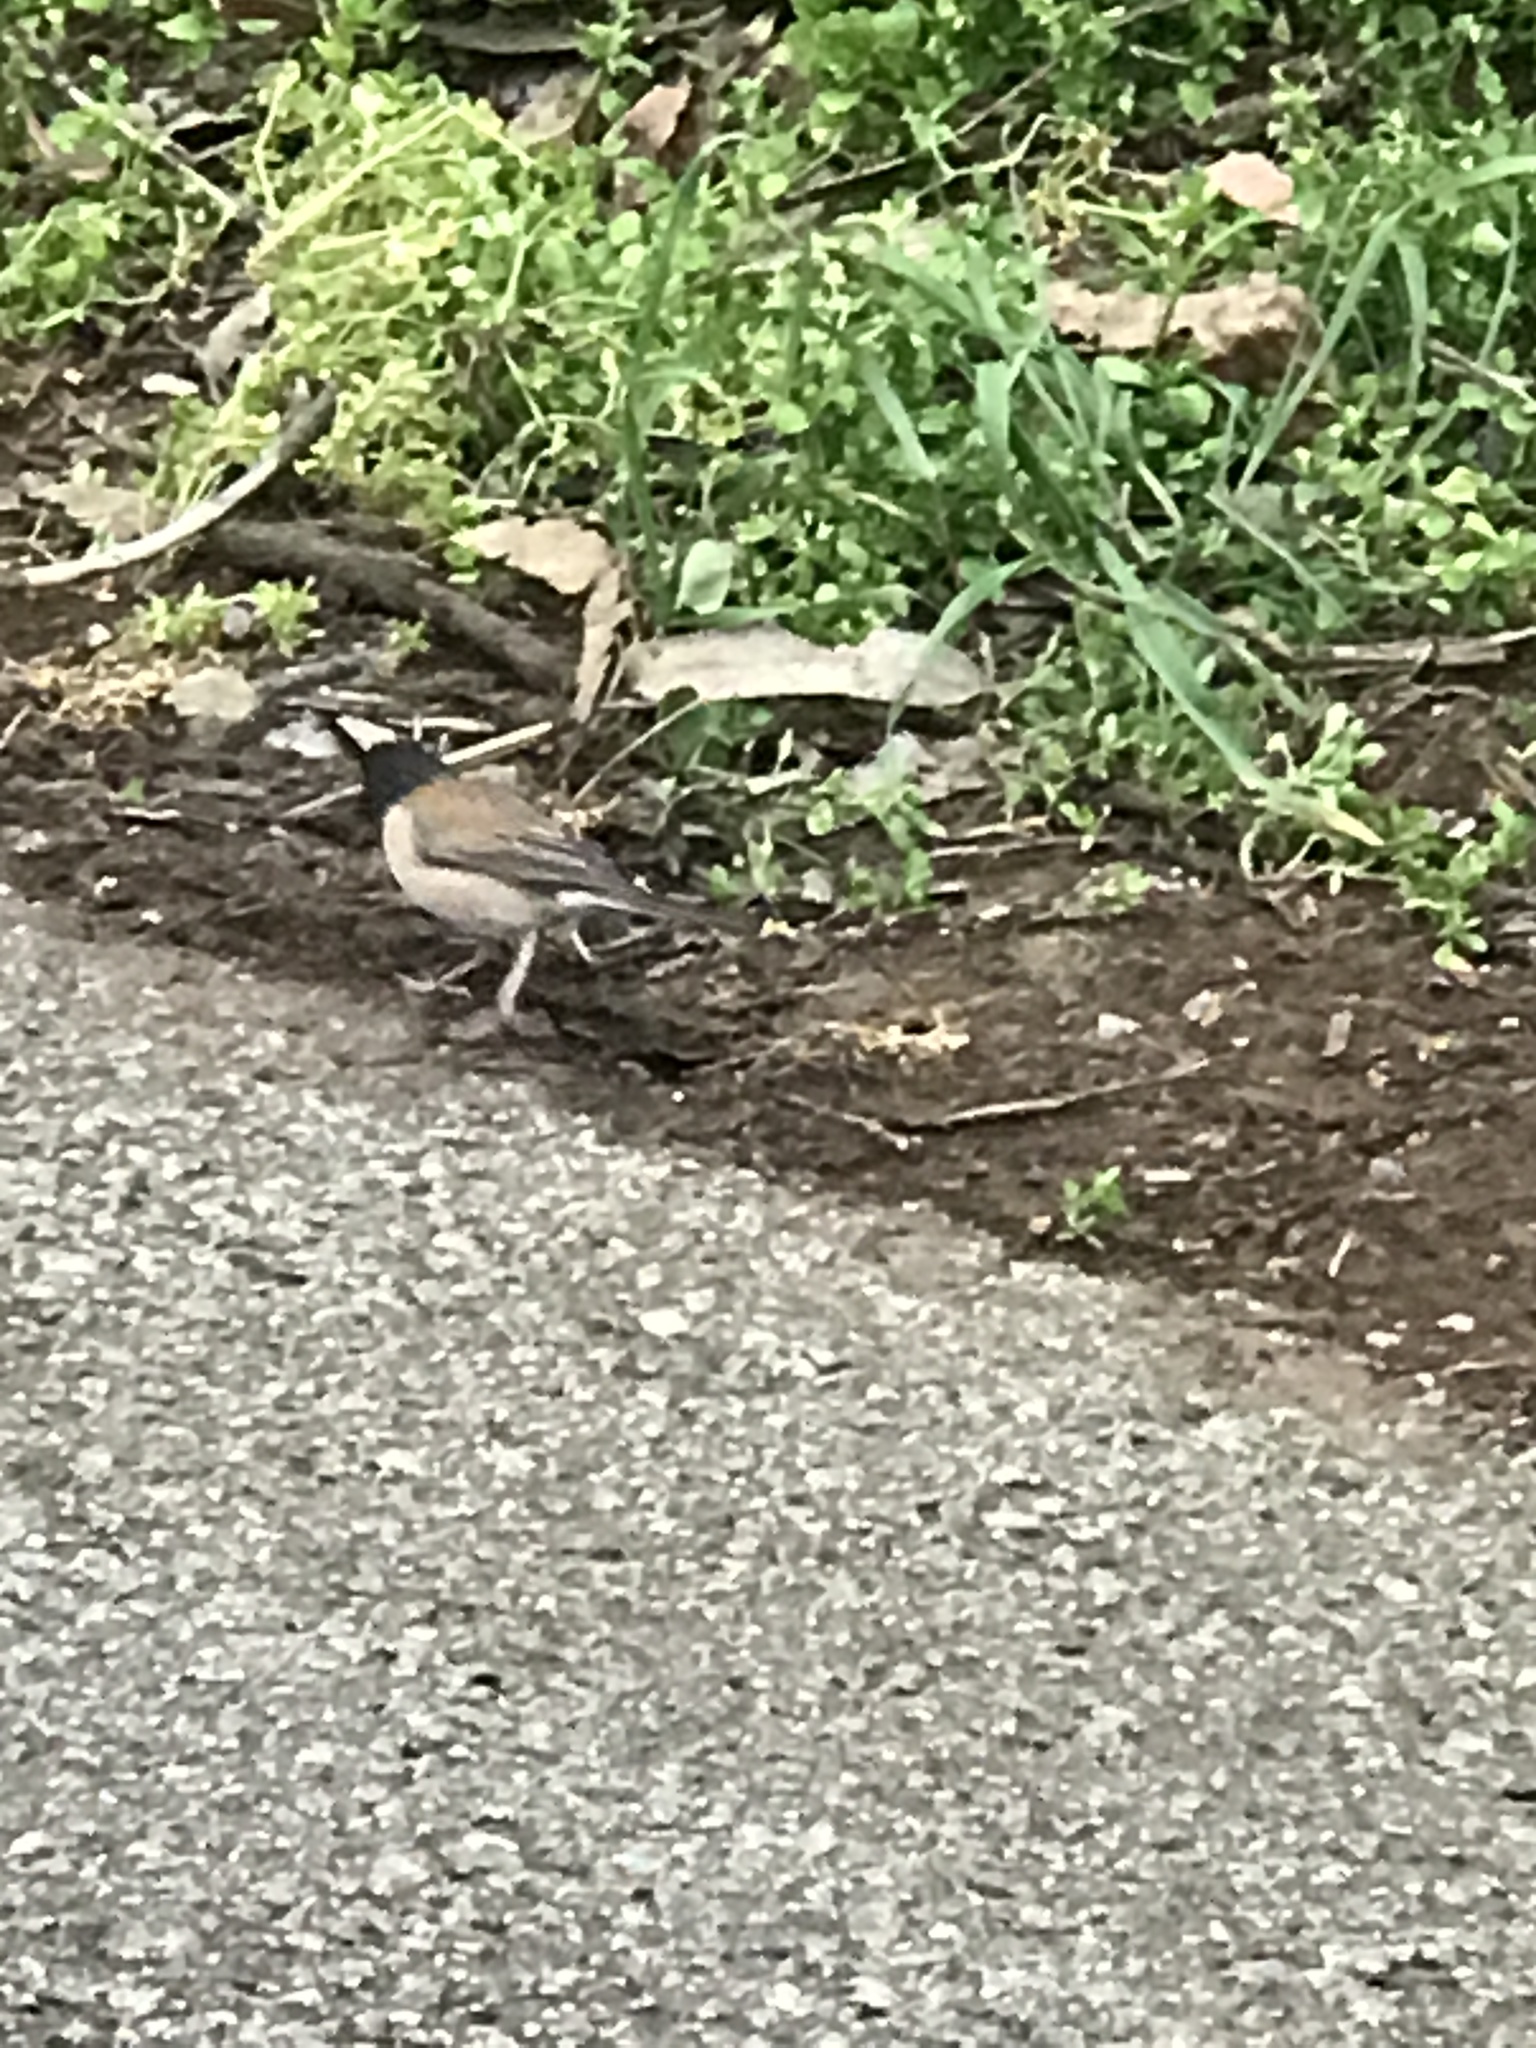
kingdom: Animalia
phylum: Chordata
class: Aves
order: Passeriformes
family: Passerellidae
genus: Junco
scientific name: Junco hyemalis
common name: Dark-eyed junco
